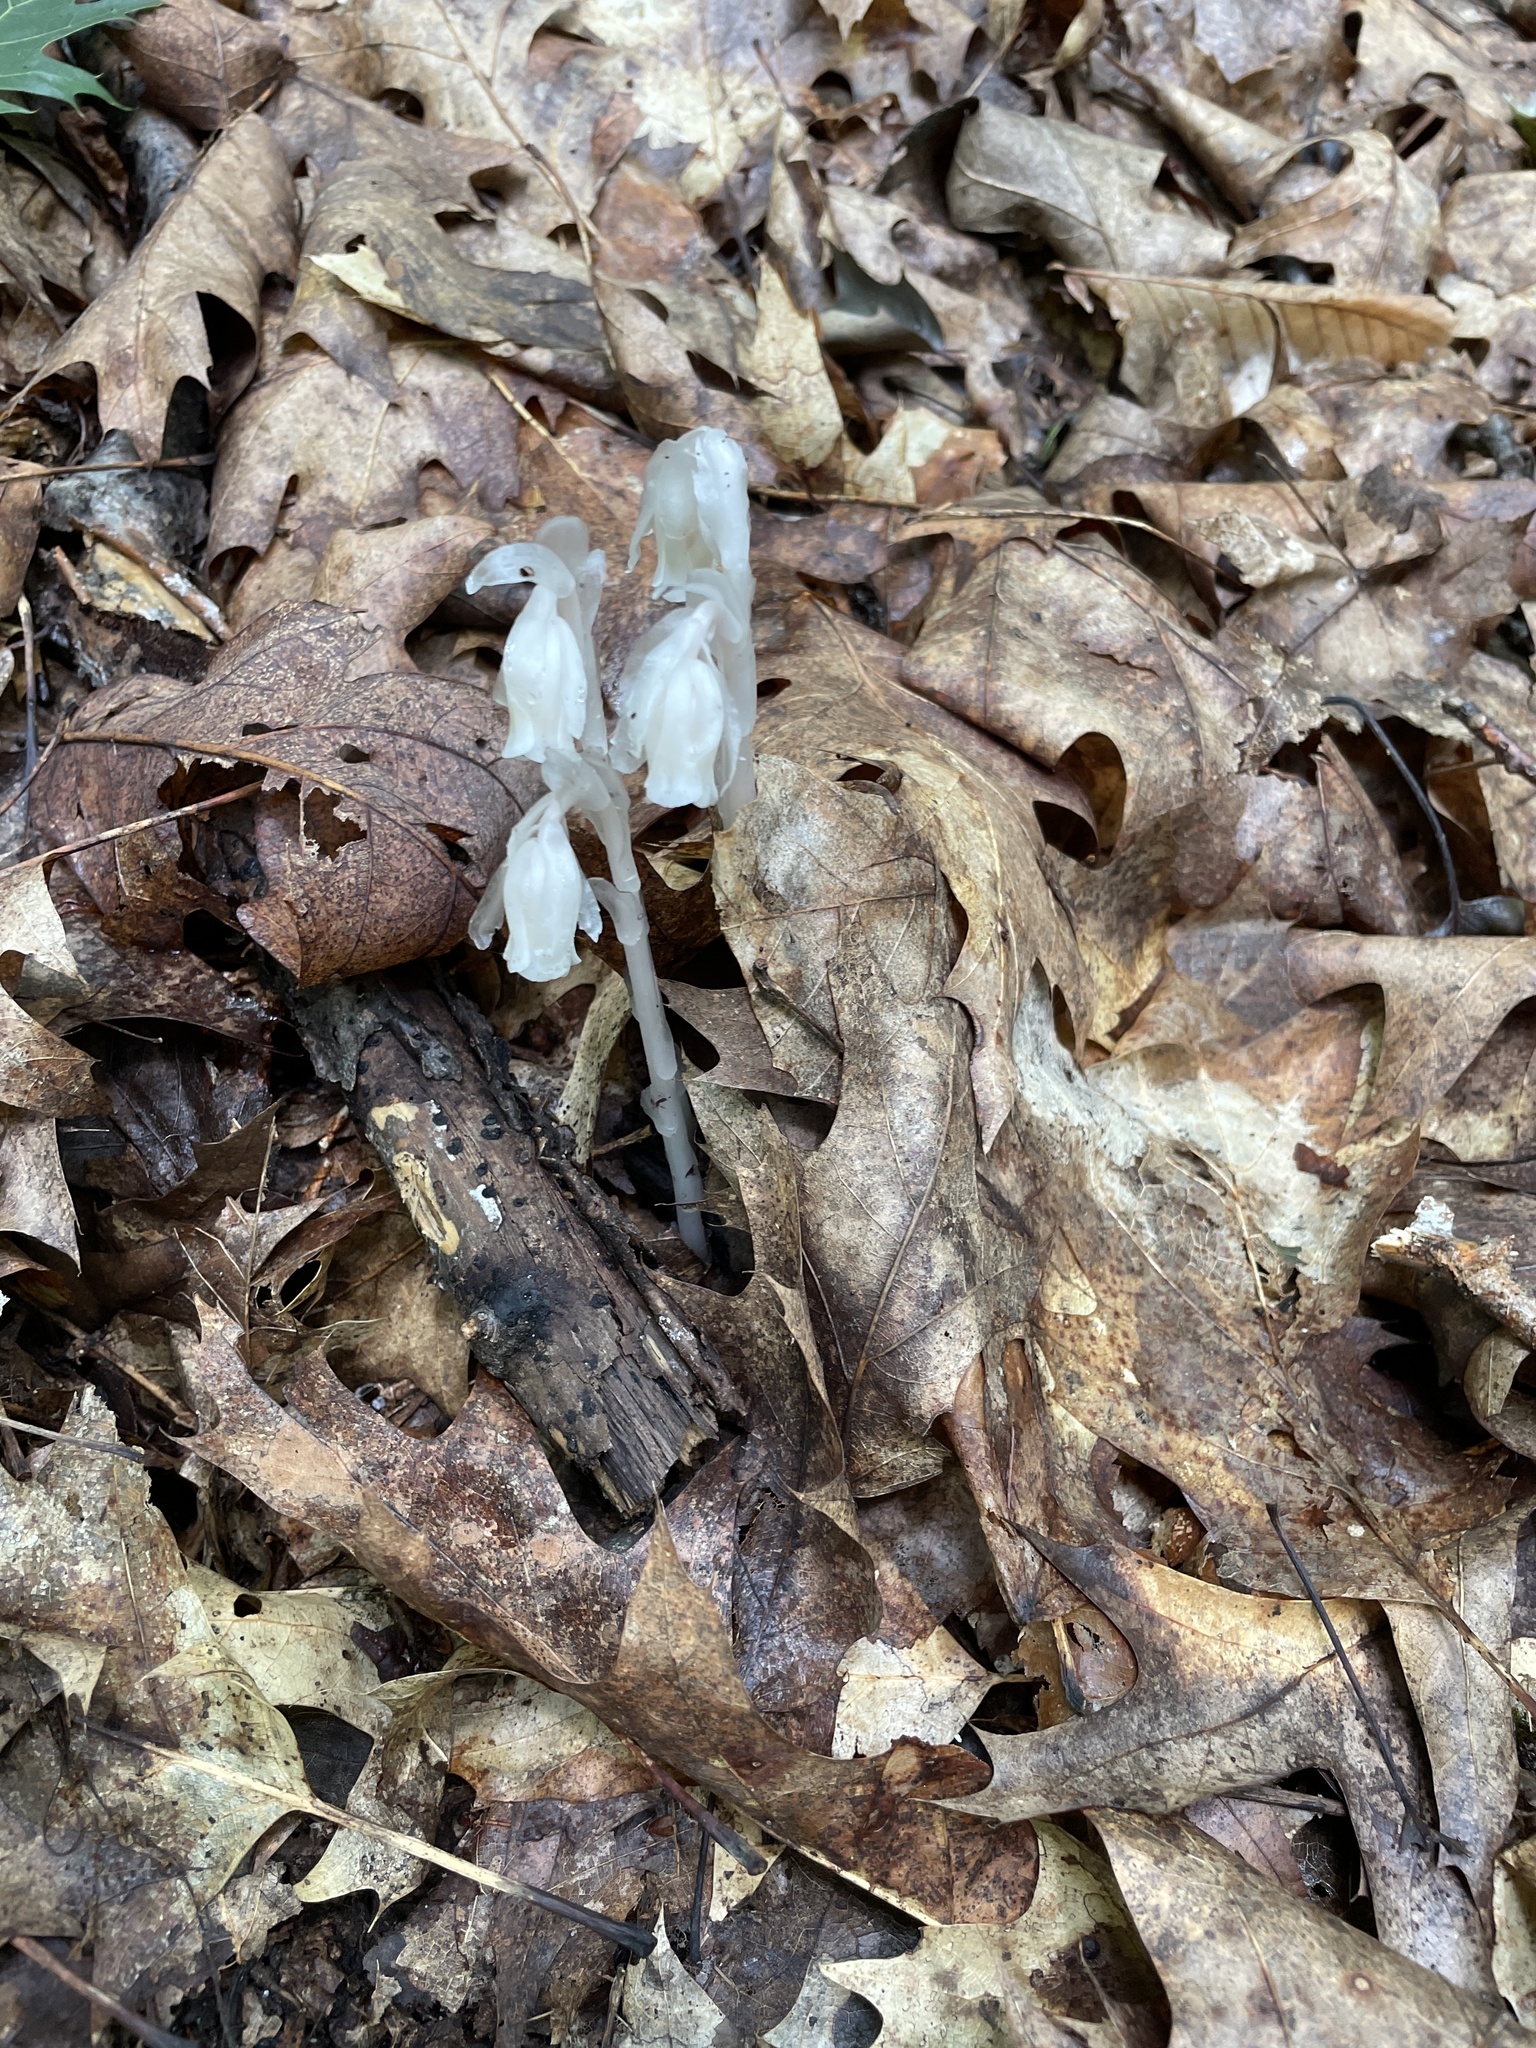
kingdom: Plantae
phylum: Tracheophyta
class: Magnoliopsida
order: Ericales
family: Ericaceae
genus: Monotropa
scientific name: Monotropa uniflora
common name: Convulsion root
